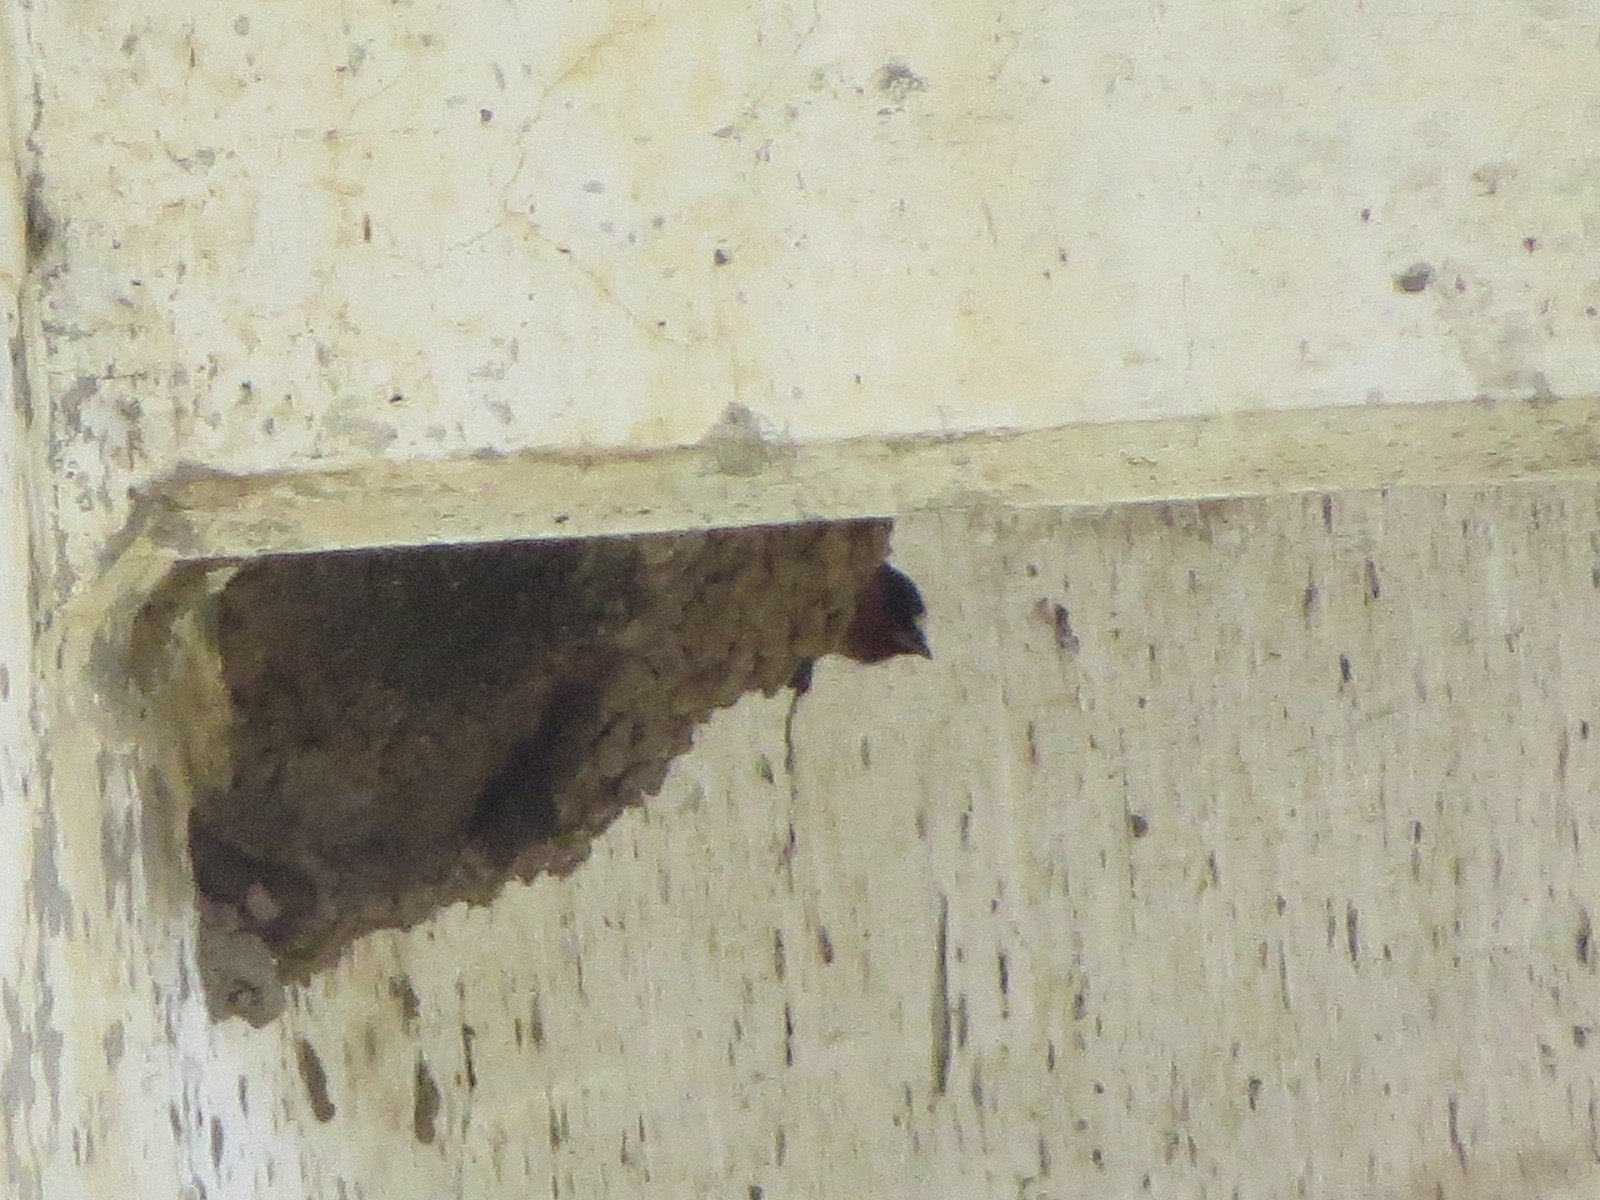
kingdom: Animalia
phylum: Chordata
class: Aves
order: Passeriformes
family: Hirundinidae
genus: Petrochelidon
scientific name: Petrochelidon pyrrhonota
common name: American cliff swallow
